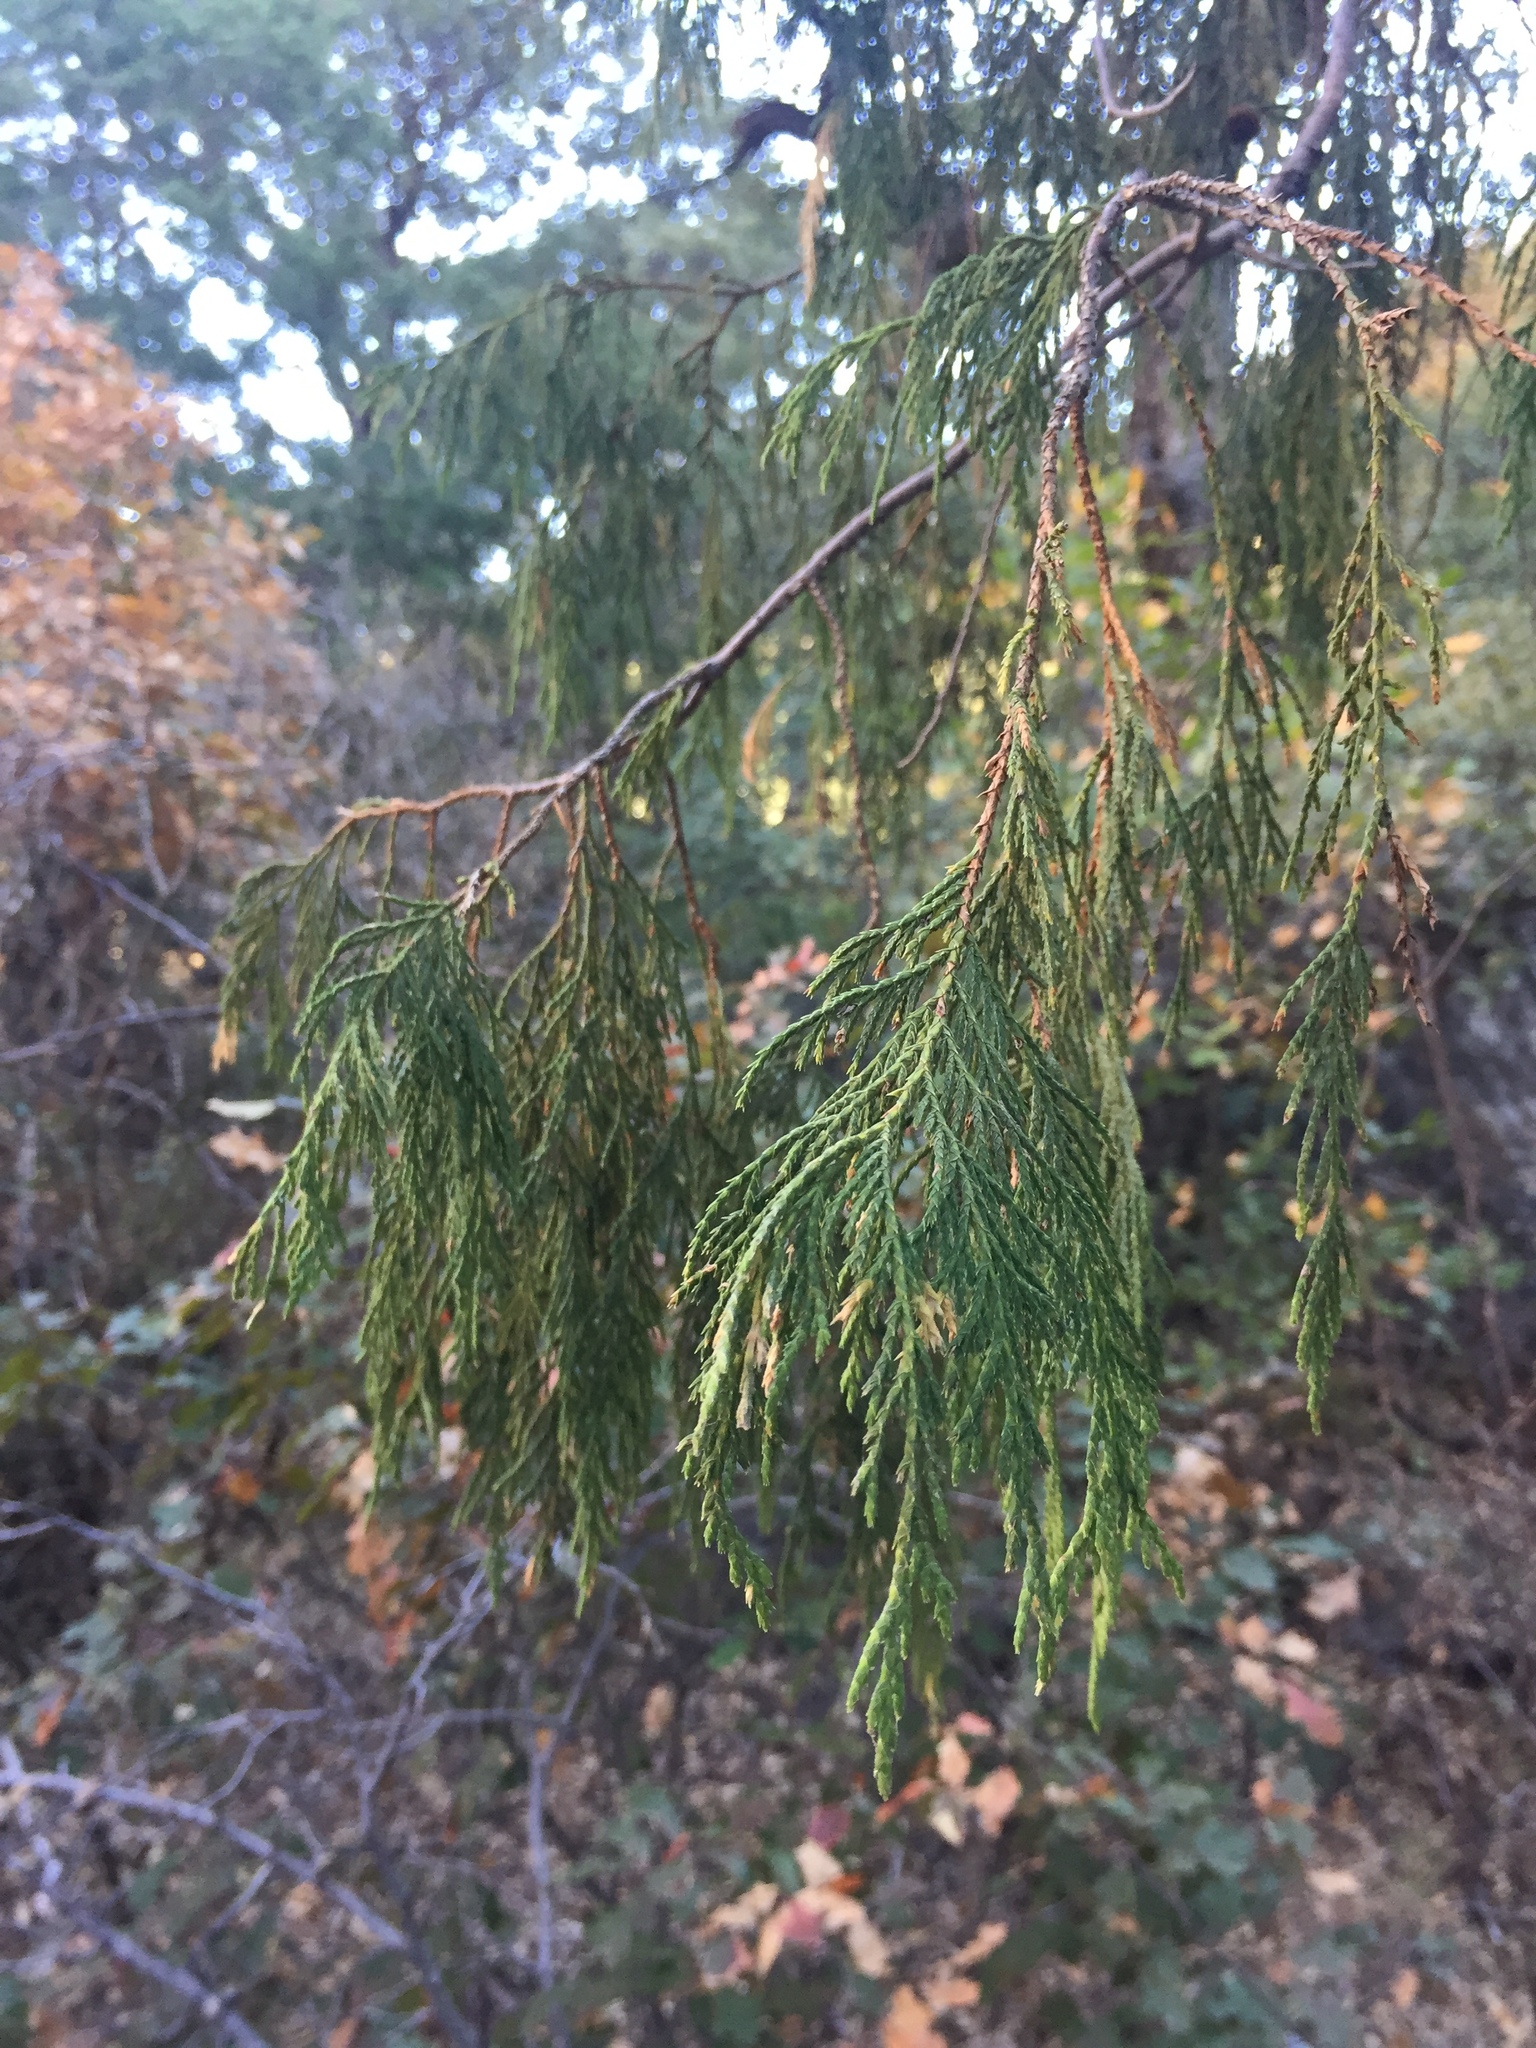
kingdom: Plantae
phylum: Tracheophyta
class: Pinopsida
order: Pinales
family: Cupressaceae
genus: Juniperus
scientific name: Juniperus flaccida
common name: Drooping juniper
